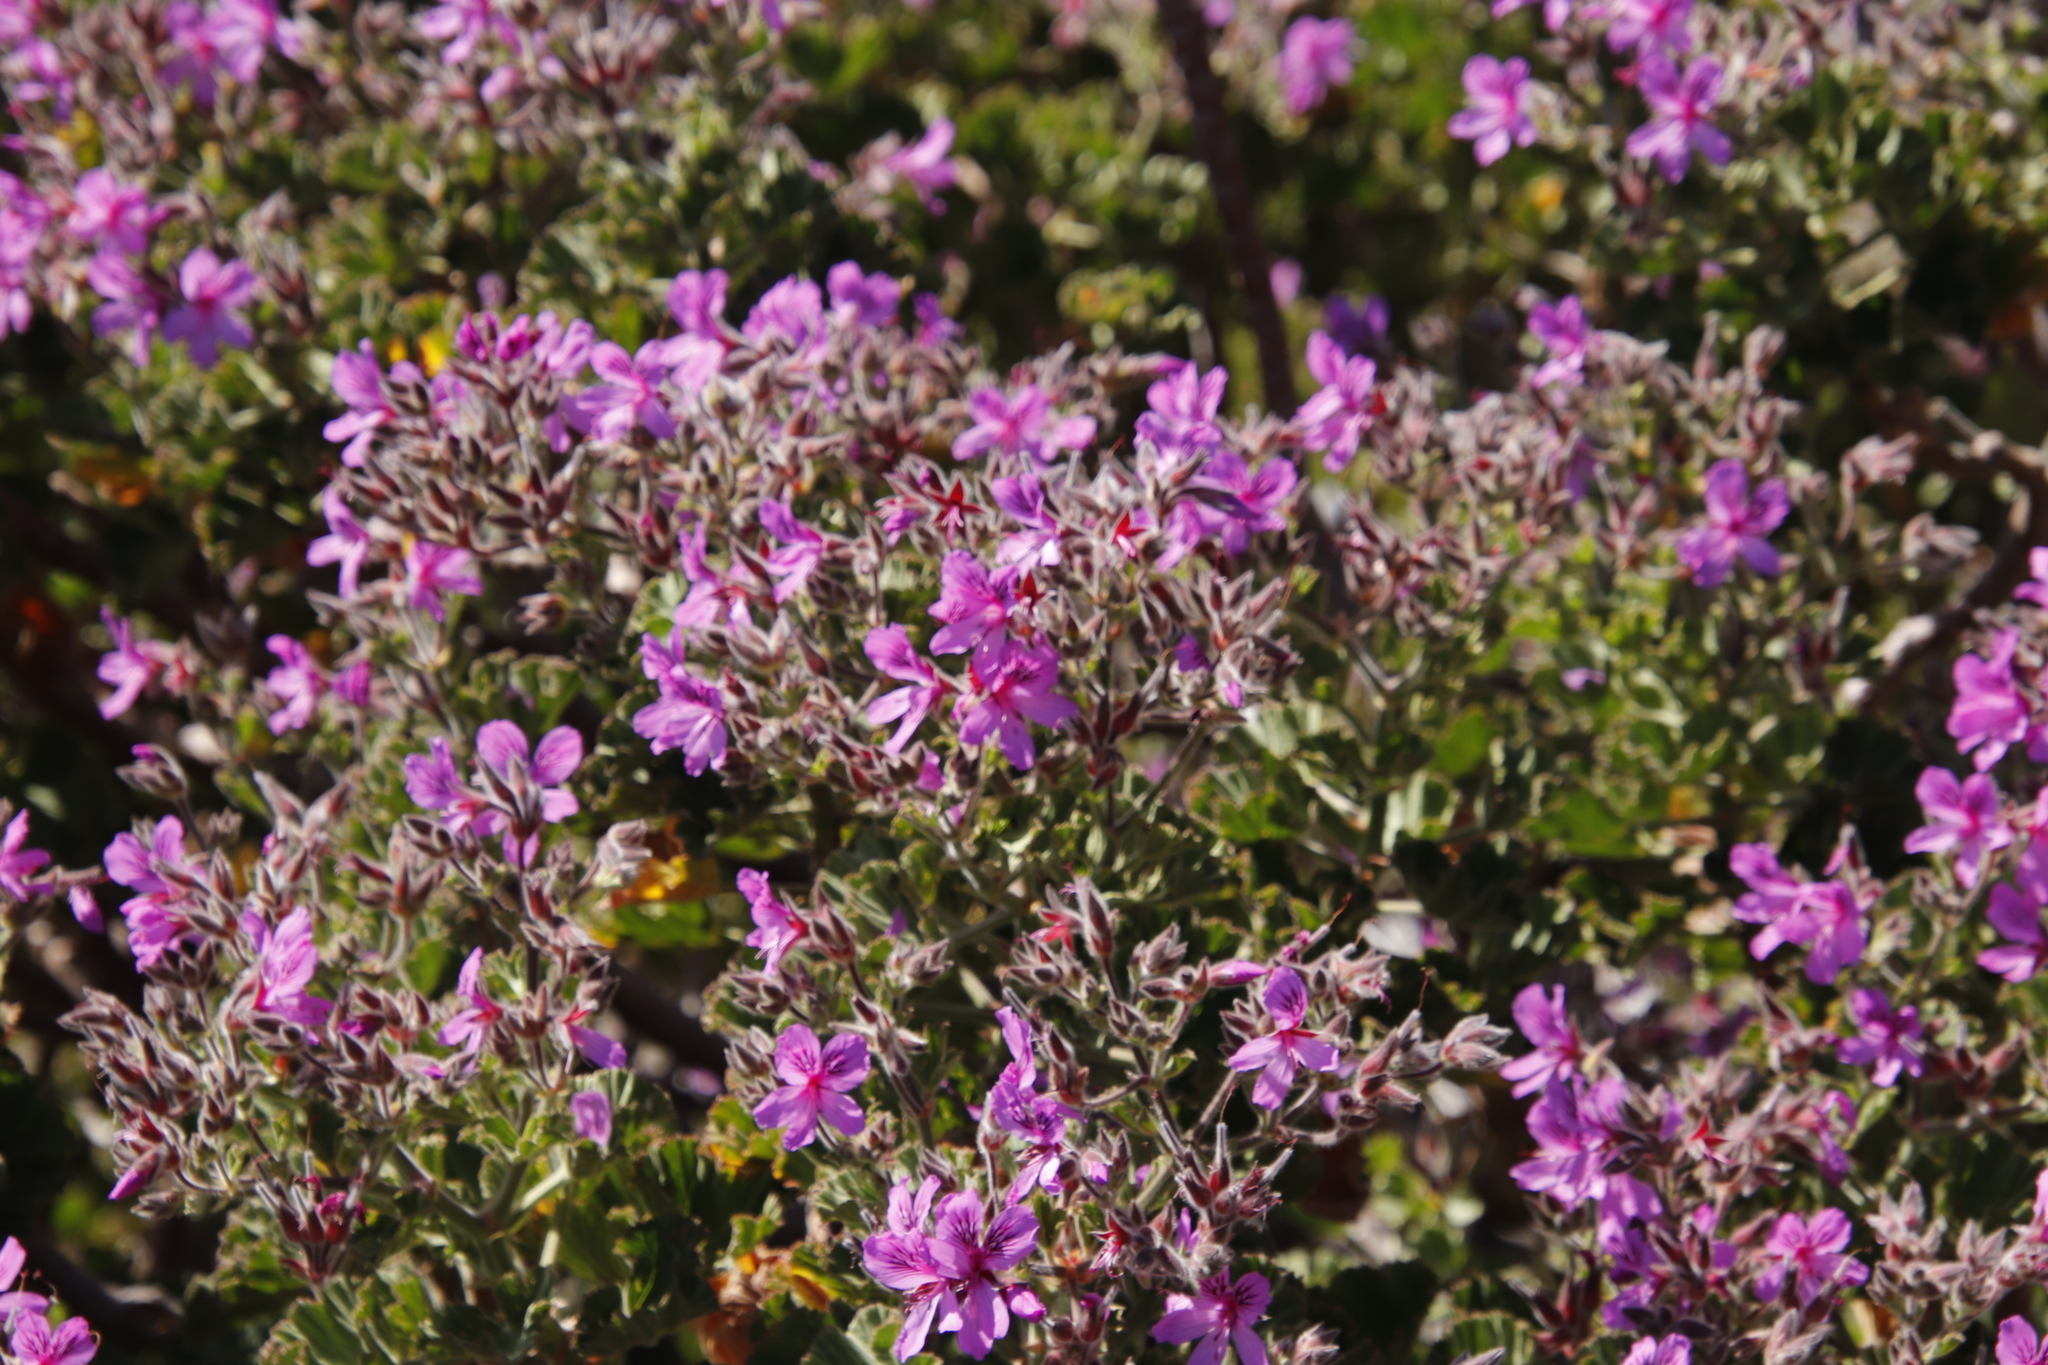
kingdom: Plantae
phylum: Tracheophyta
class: Magnoliopsida
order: Geraniales
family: Geraniaceae
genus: Pelargonium
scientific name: Pelargonium cucullatum
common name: Tree pelargonium
